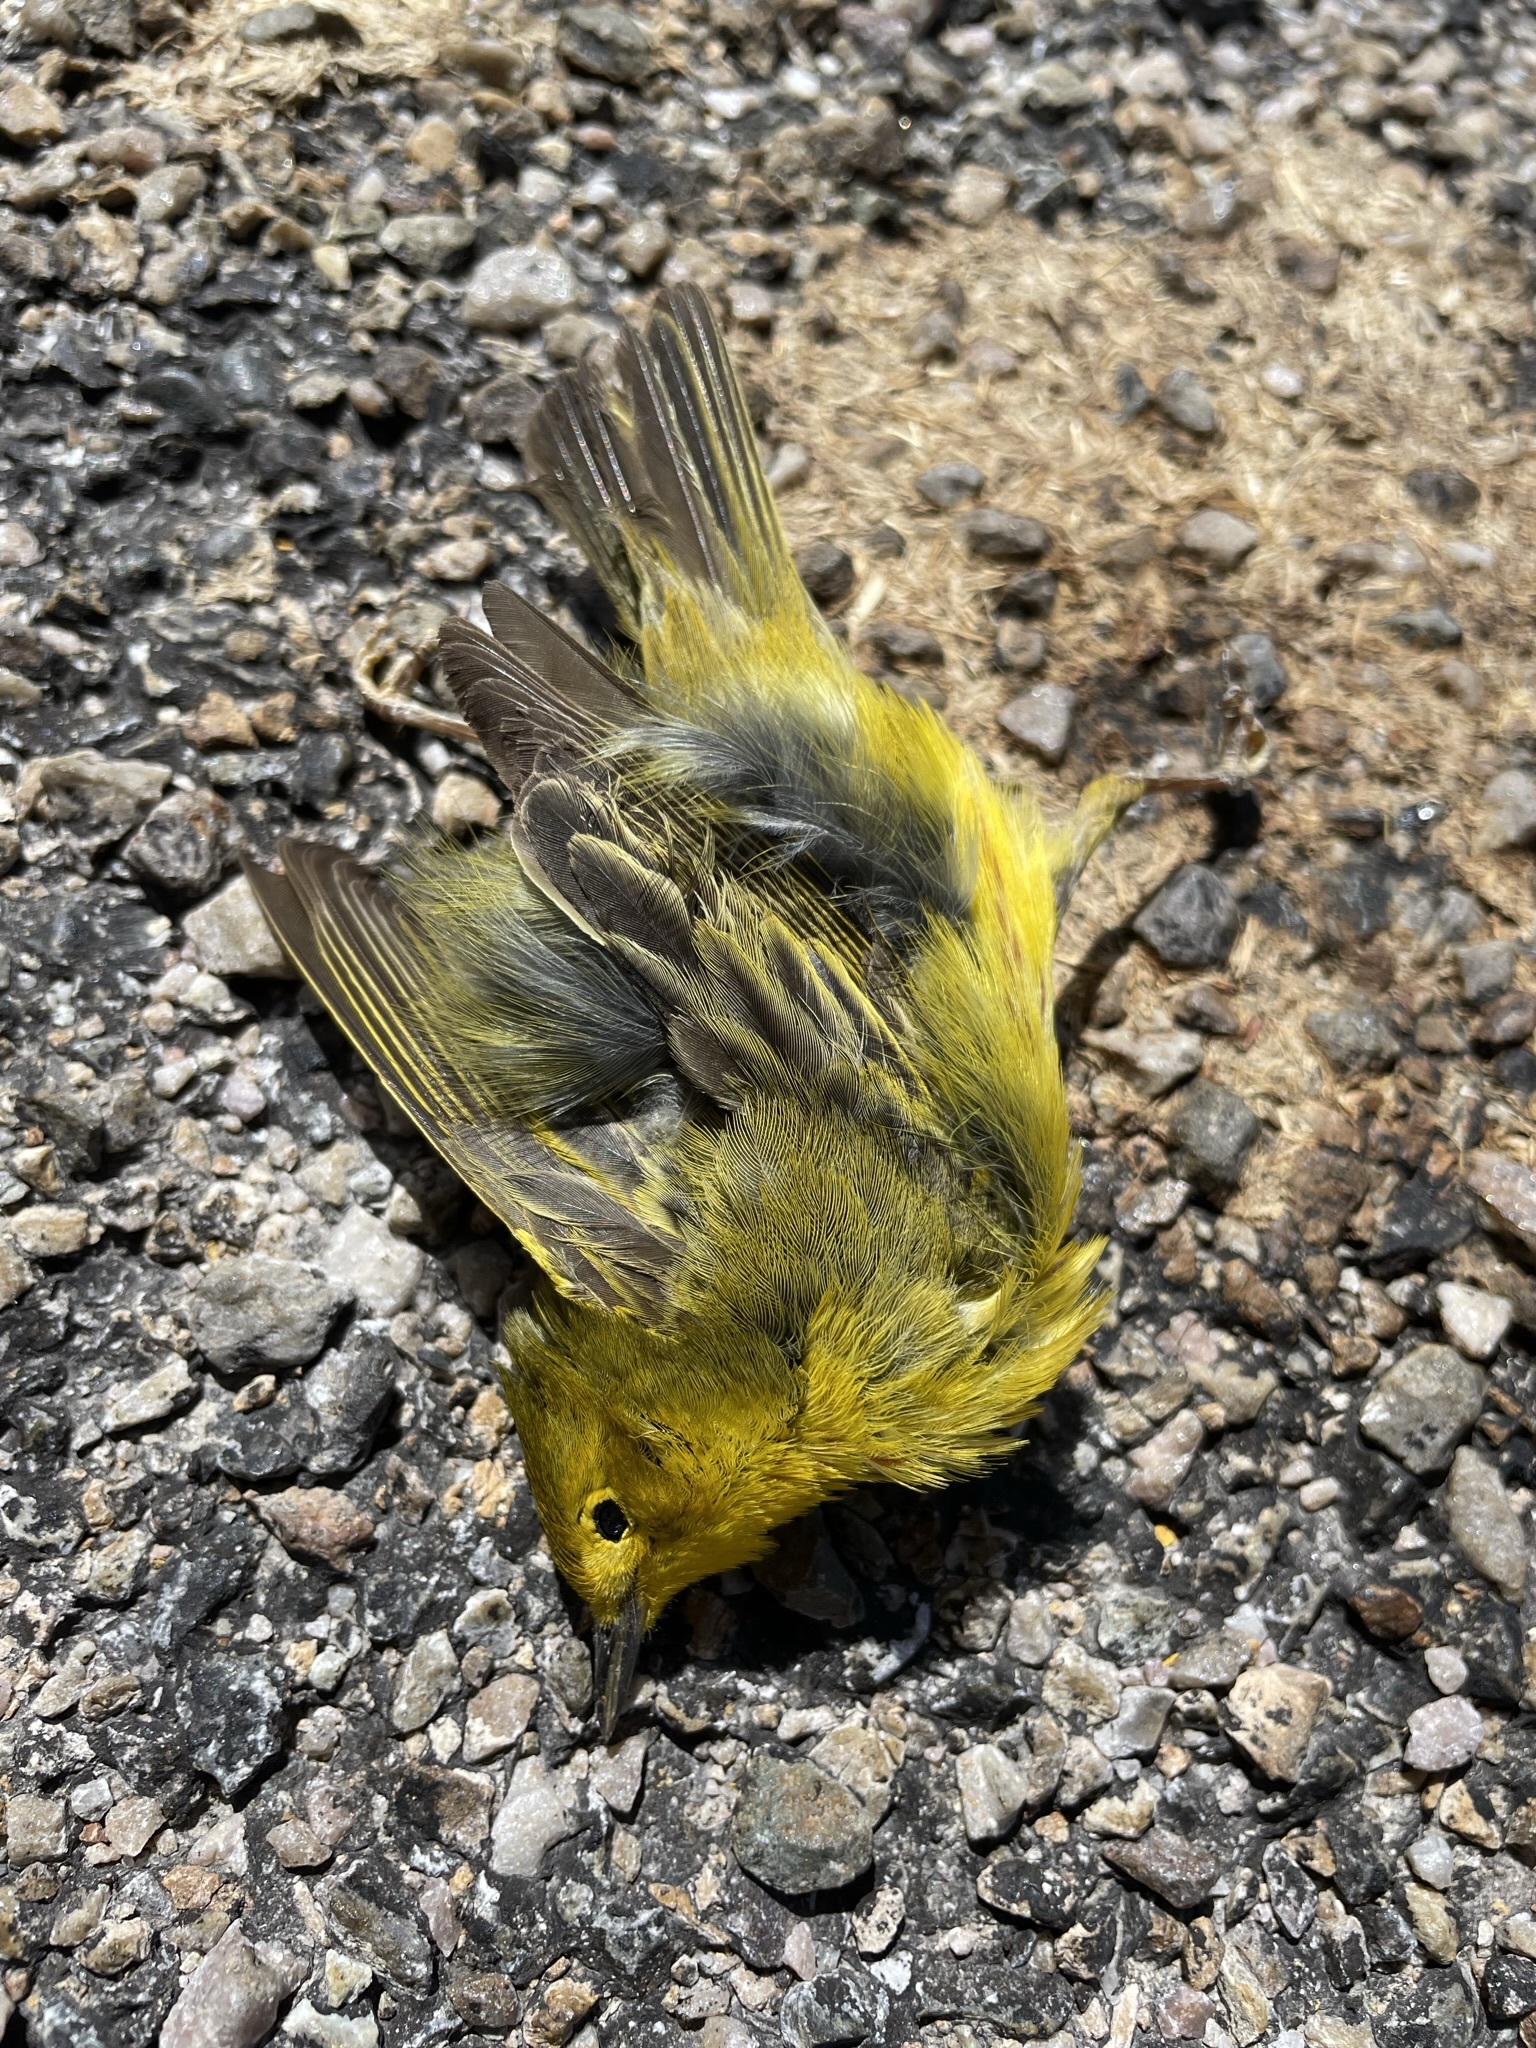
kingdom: Animalia
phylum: Chordata
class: Aves
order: Passeriformes
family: Parulidae
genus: Setophaga
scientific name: Setophaga petechia
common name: Yellow warbler
